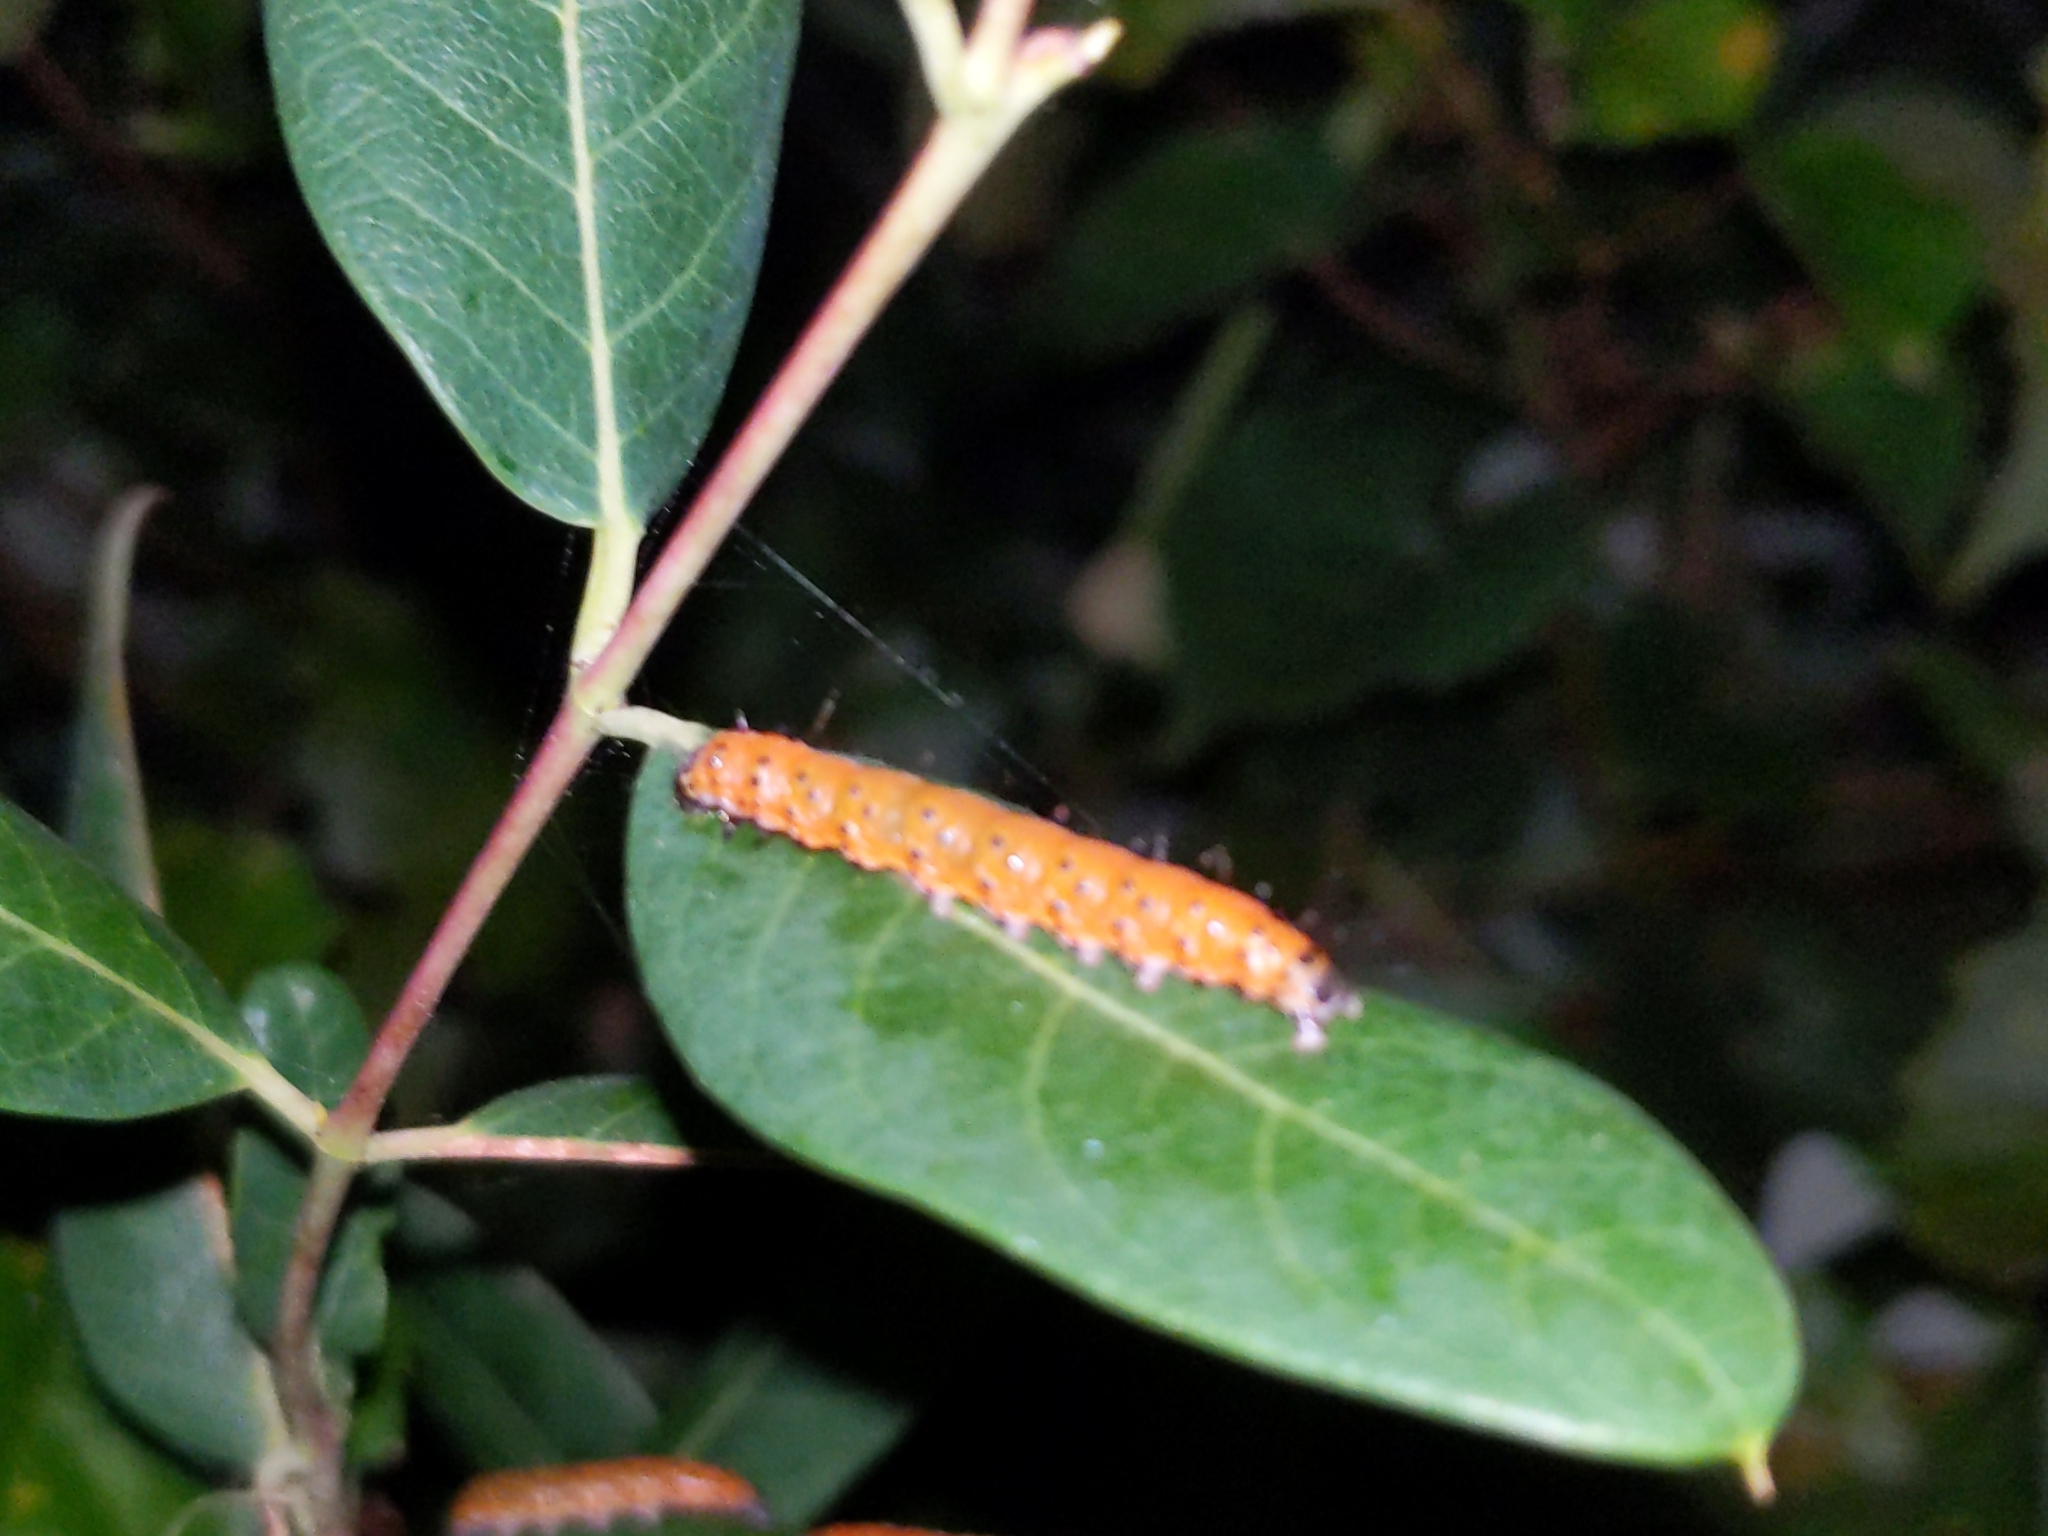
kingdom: Animalia
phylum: Arthropoda
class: Insecta
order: Lepidoptera
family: Crambidae
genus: Saucrobotys
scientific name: Saucrobotys futilalis
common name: Dogbane saucrobotys moth
